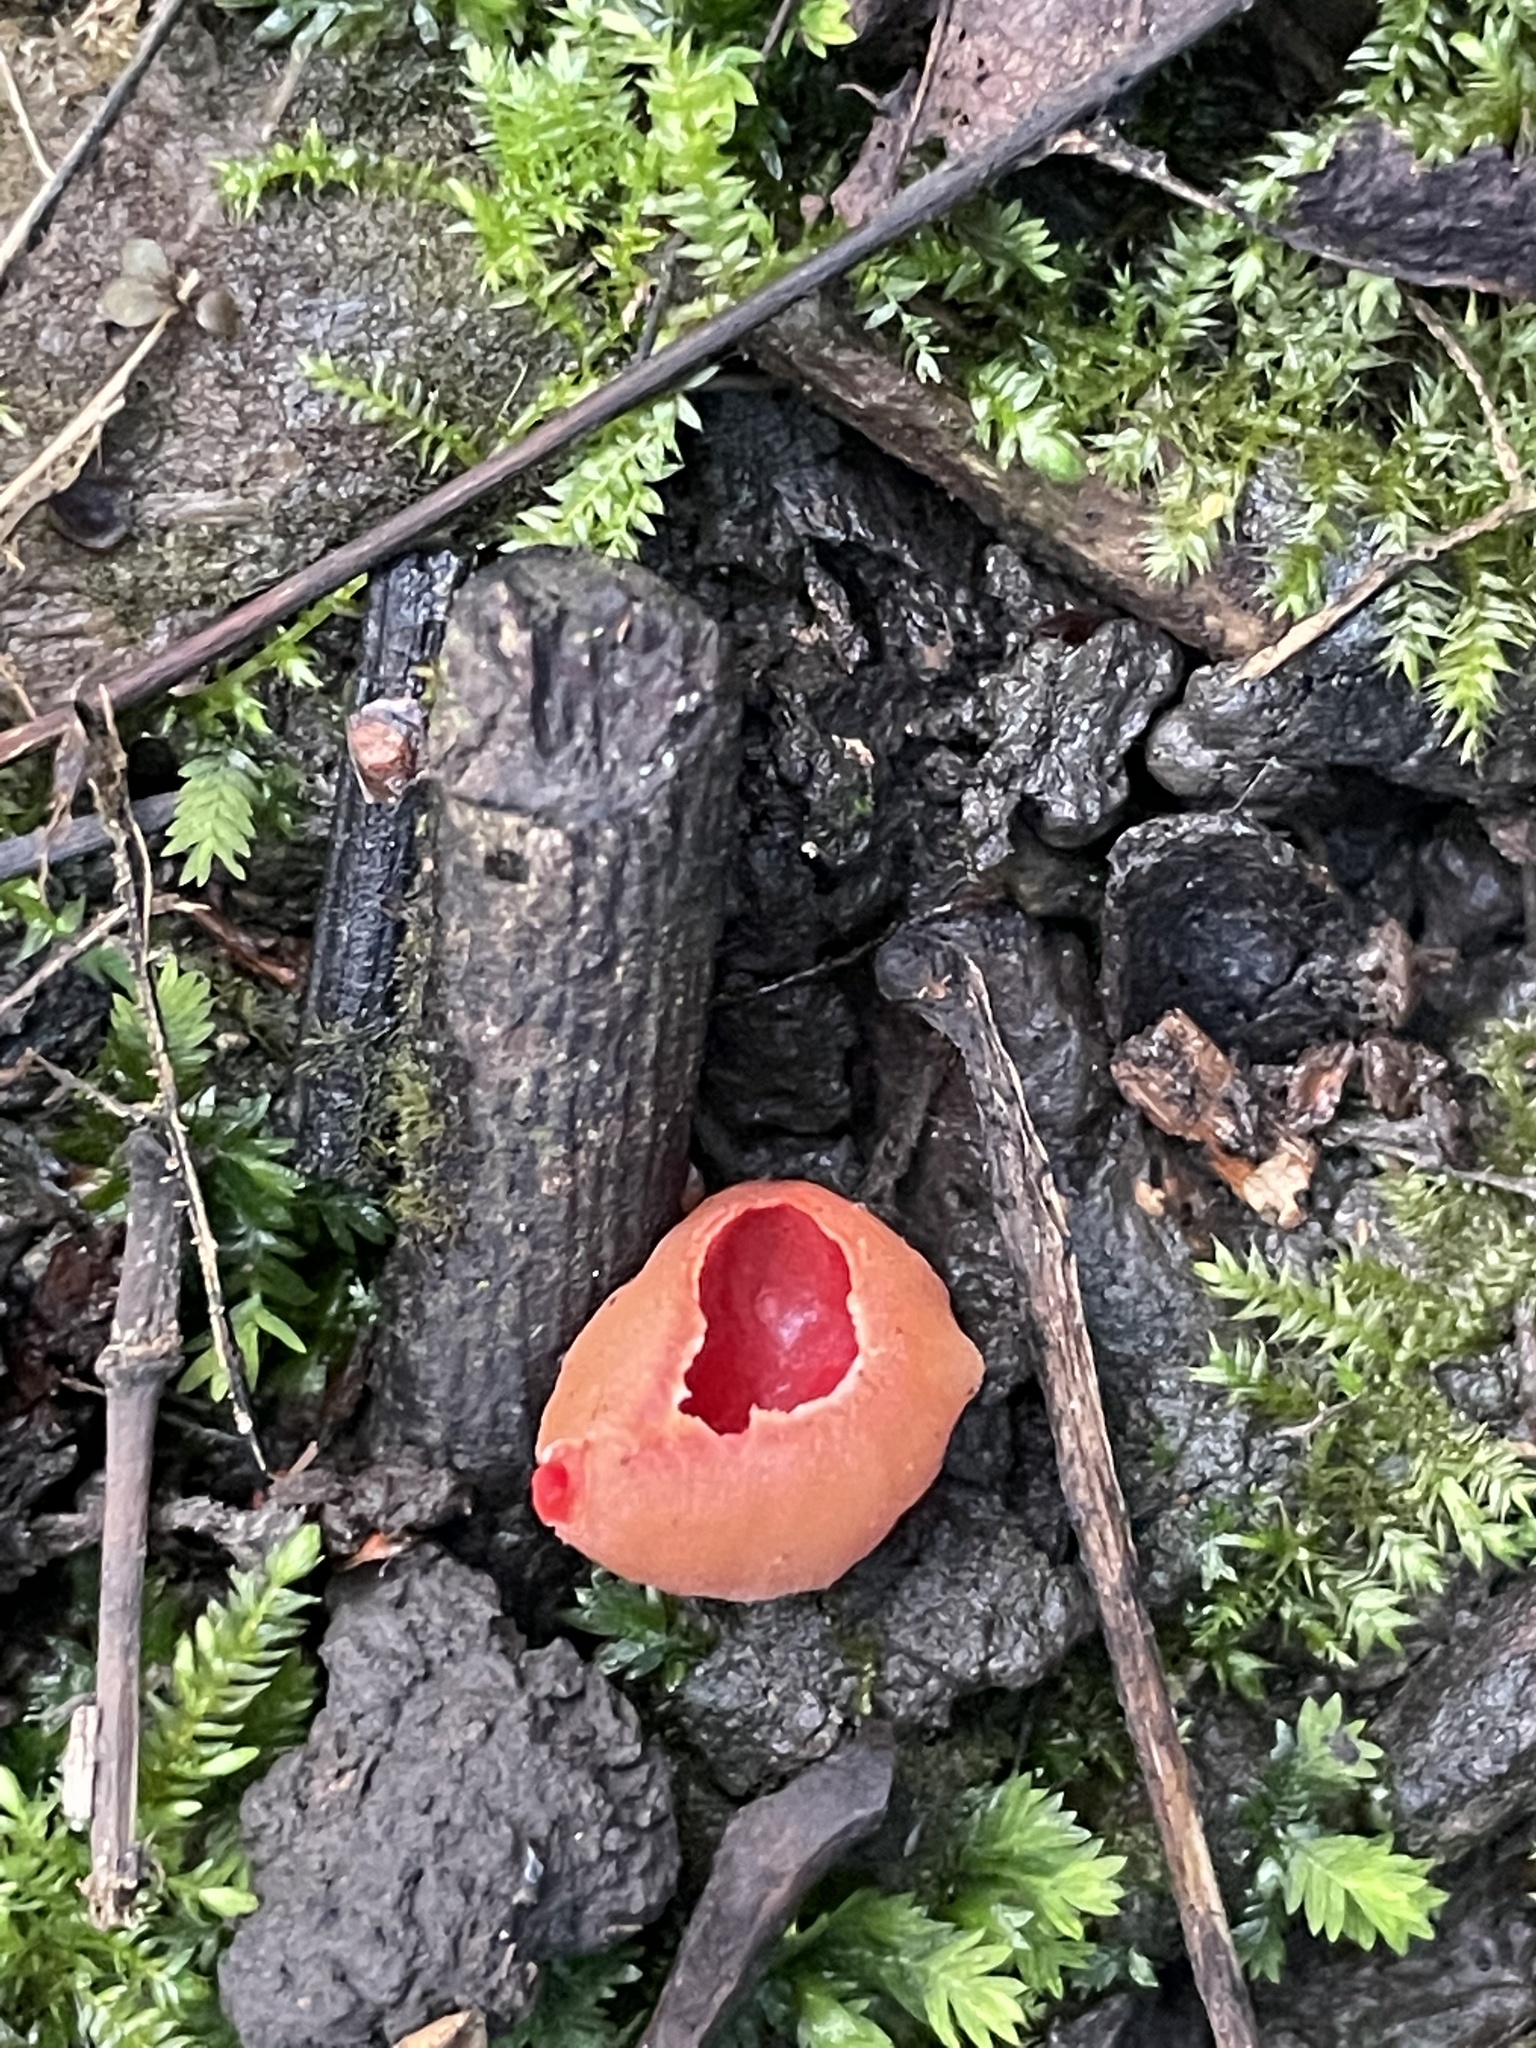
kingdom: Fungi
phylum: Ascomycota
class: Pezizomycetes
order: Pezizales
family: Sarcoscyphaceae
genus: Sarcoscypha
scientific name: Sarcoscypha
